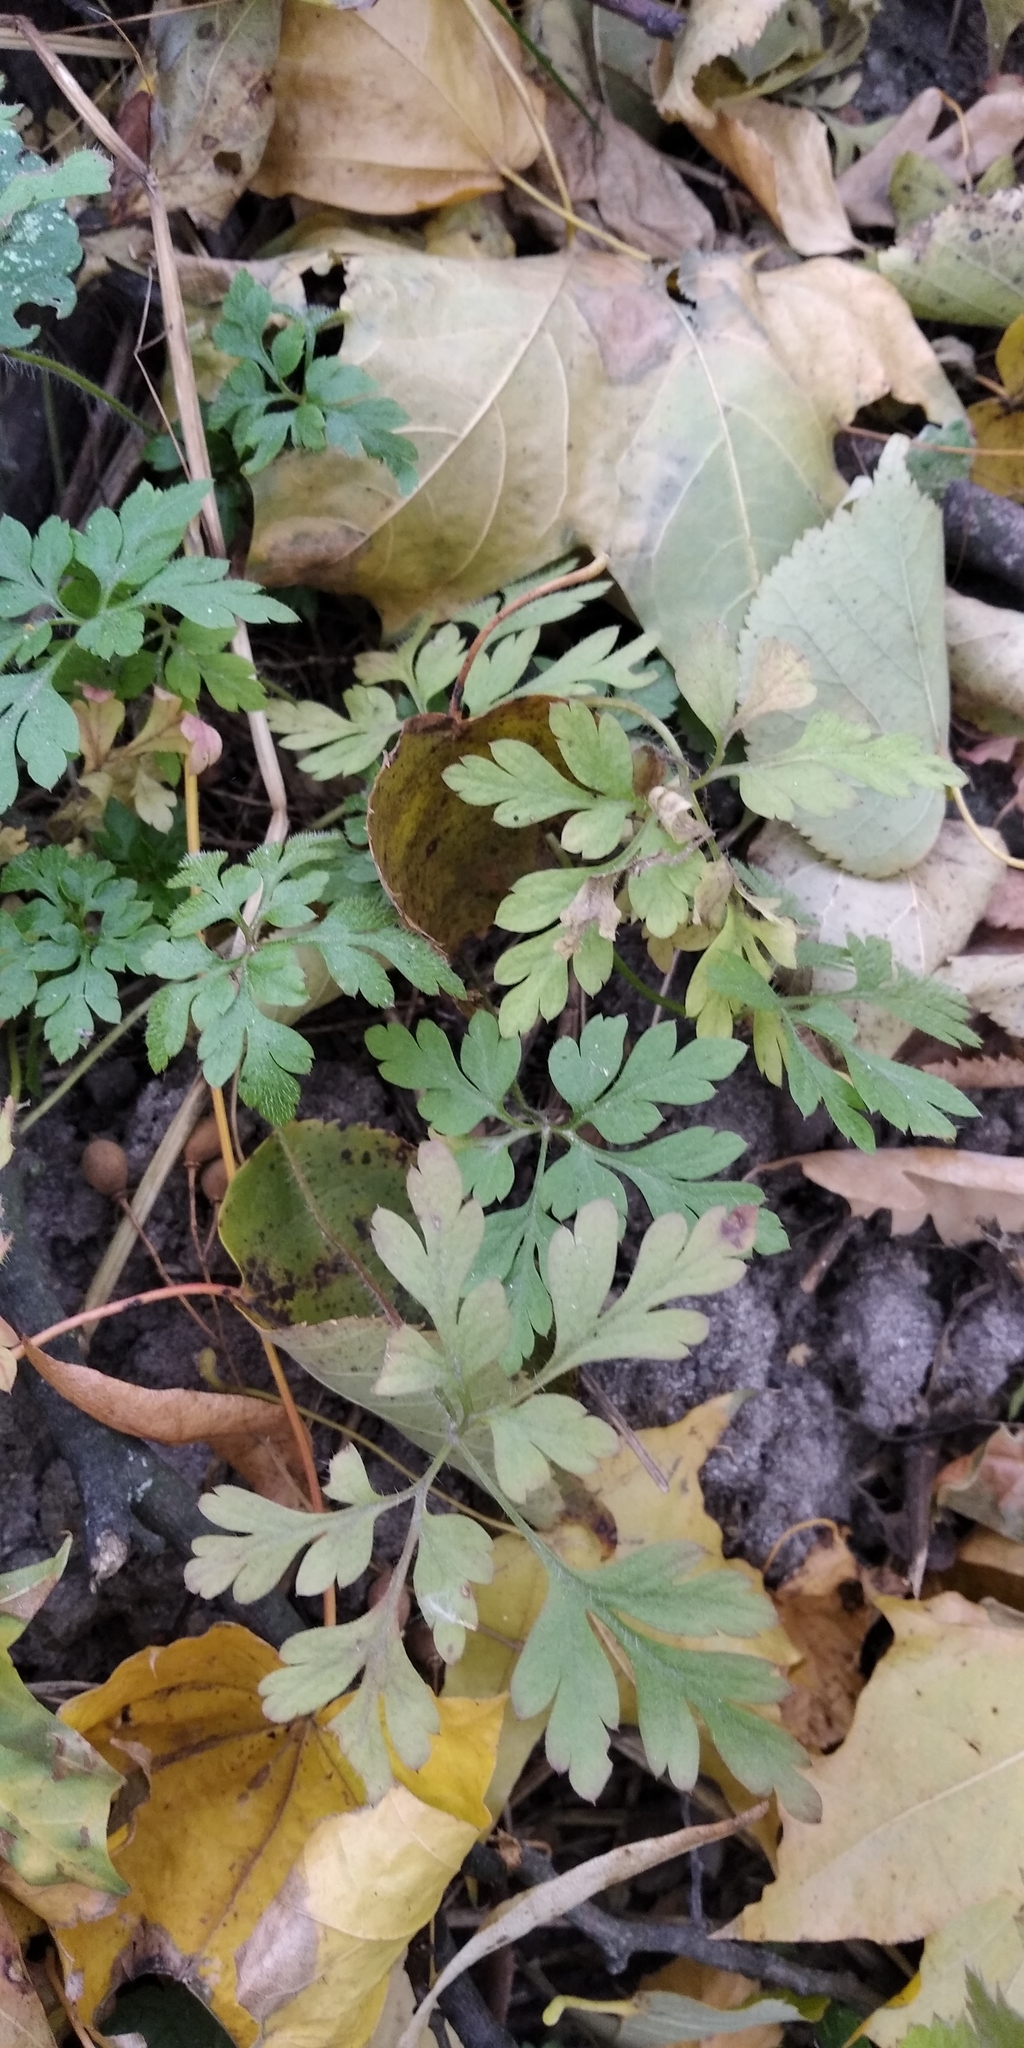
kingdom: Plantae
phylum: Tracheophyta
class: Magnoliopsida
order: Geraniales
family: Geraniaceae
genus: Geranium
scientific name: Geranium robertianum
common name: Herb-robert
